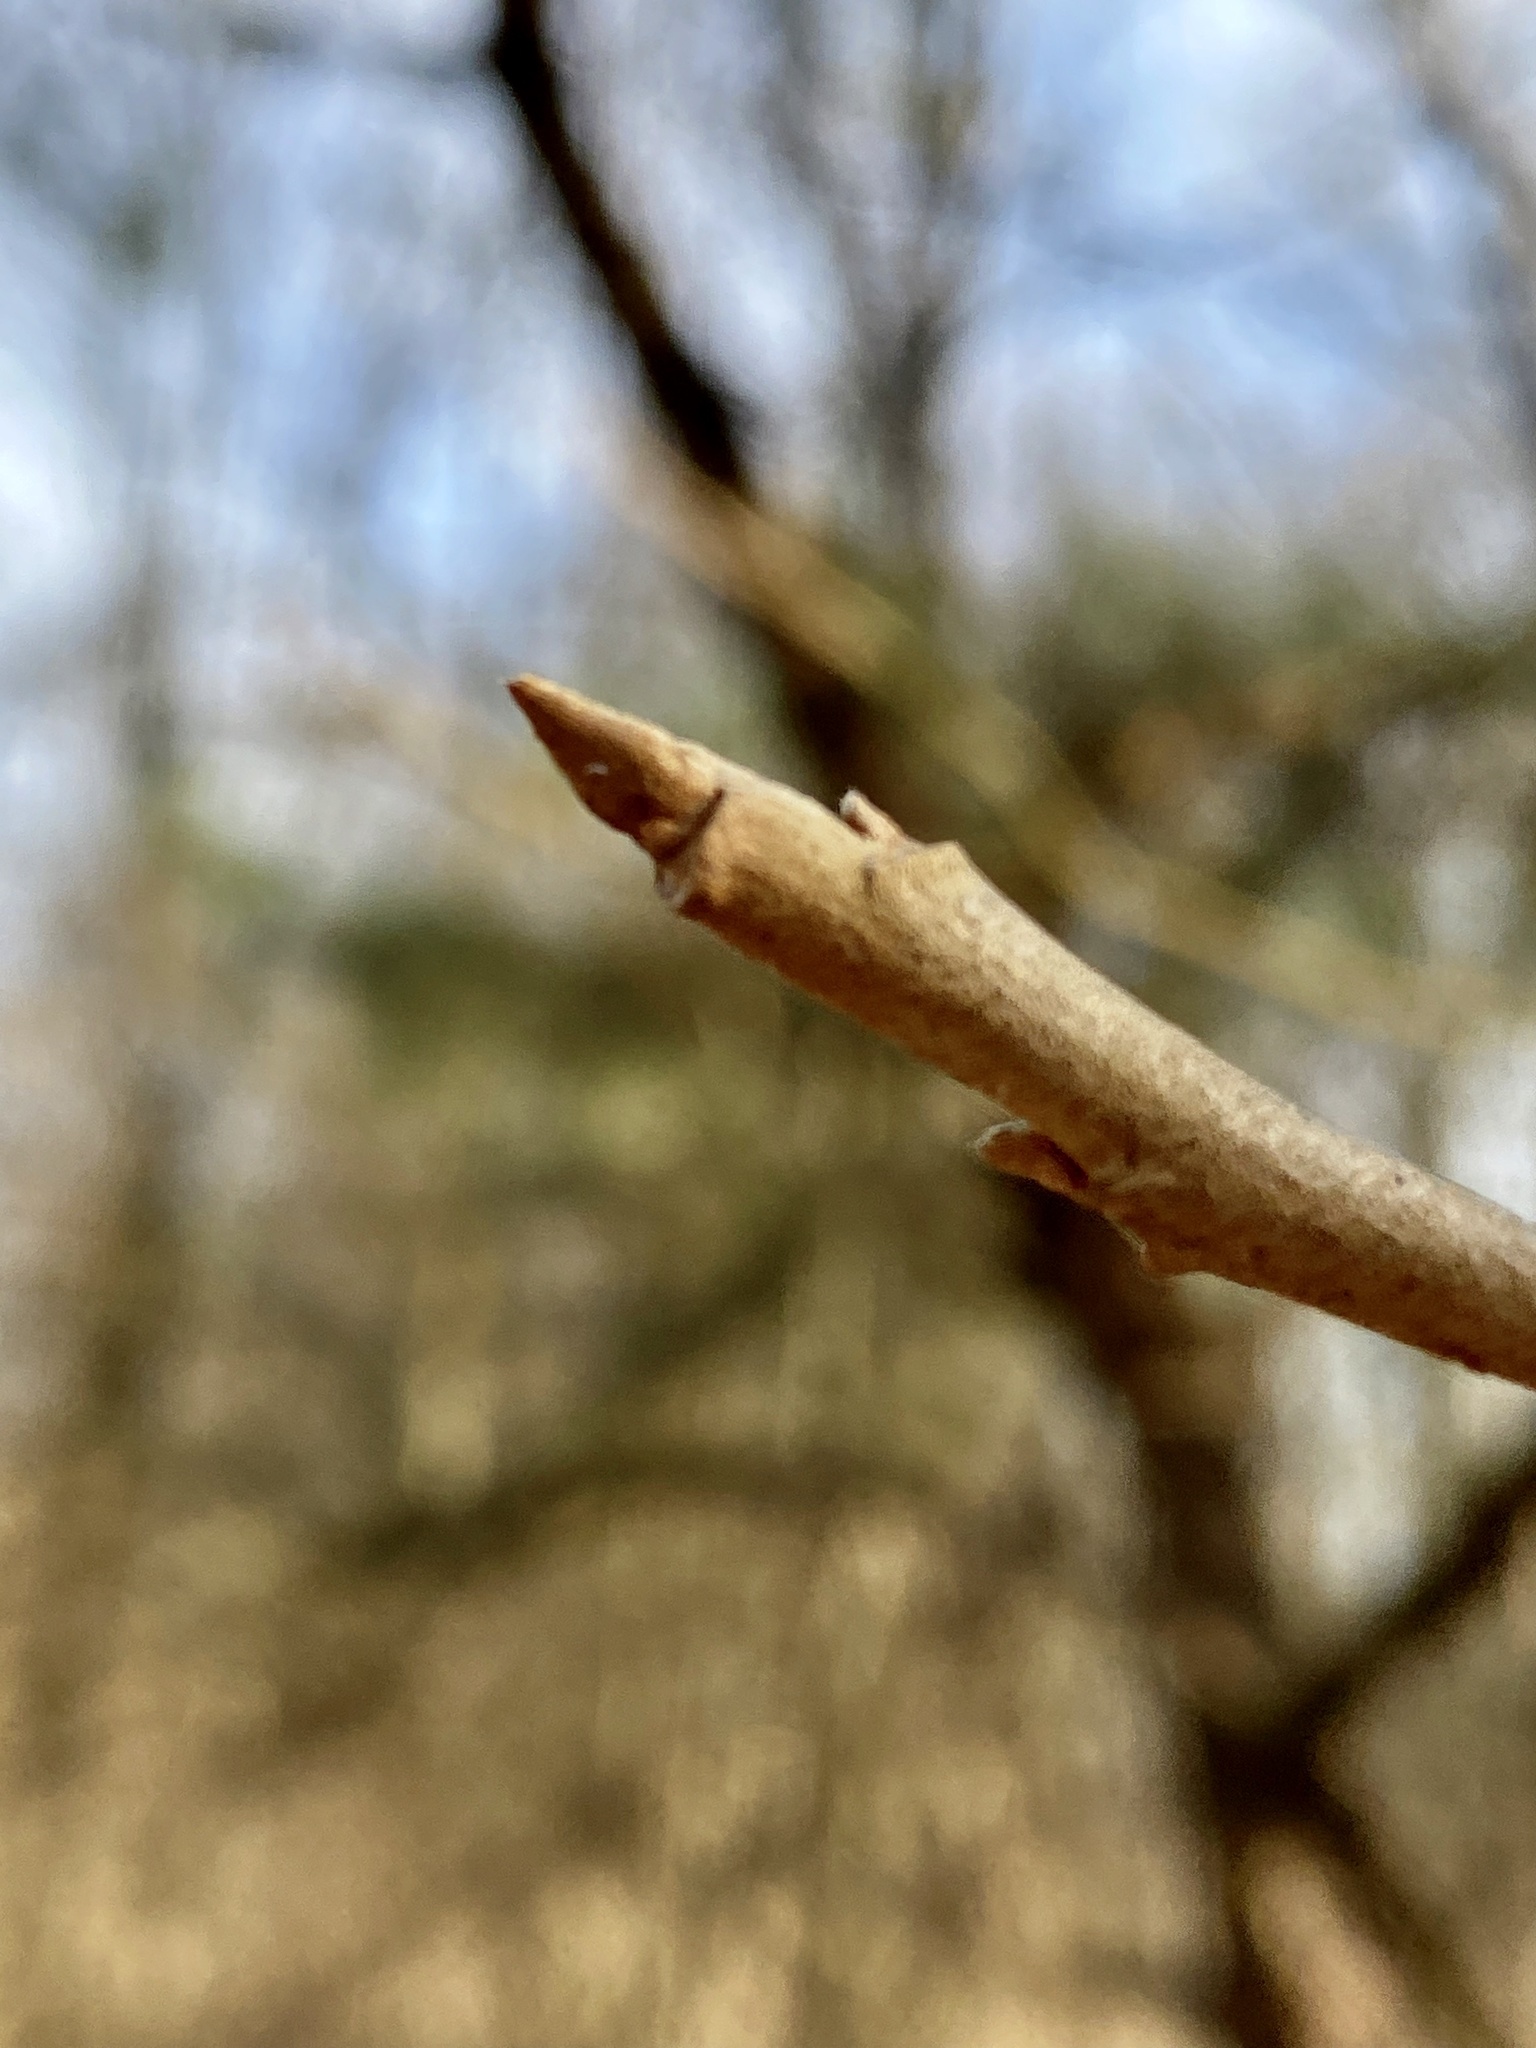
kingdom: Plantae
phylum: Tracheophyta
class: Magnoliopsida
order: Sapindales
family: Anacardiaceae
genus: Toxicodendron
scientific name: Toxicodendron radicans
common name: Poison ivy
